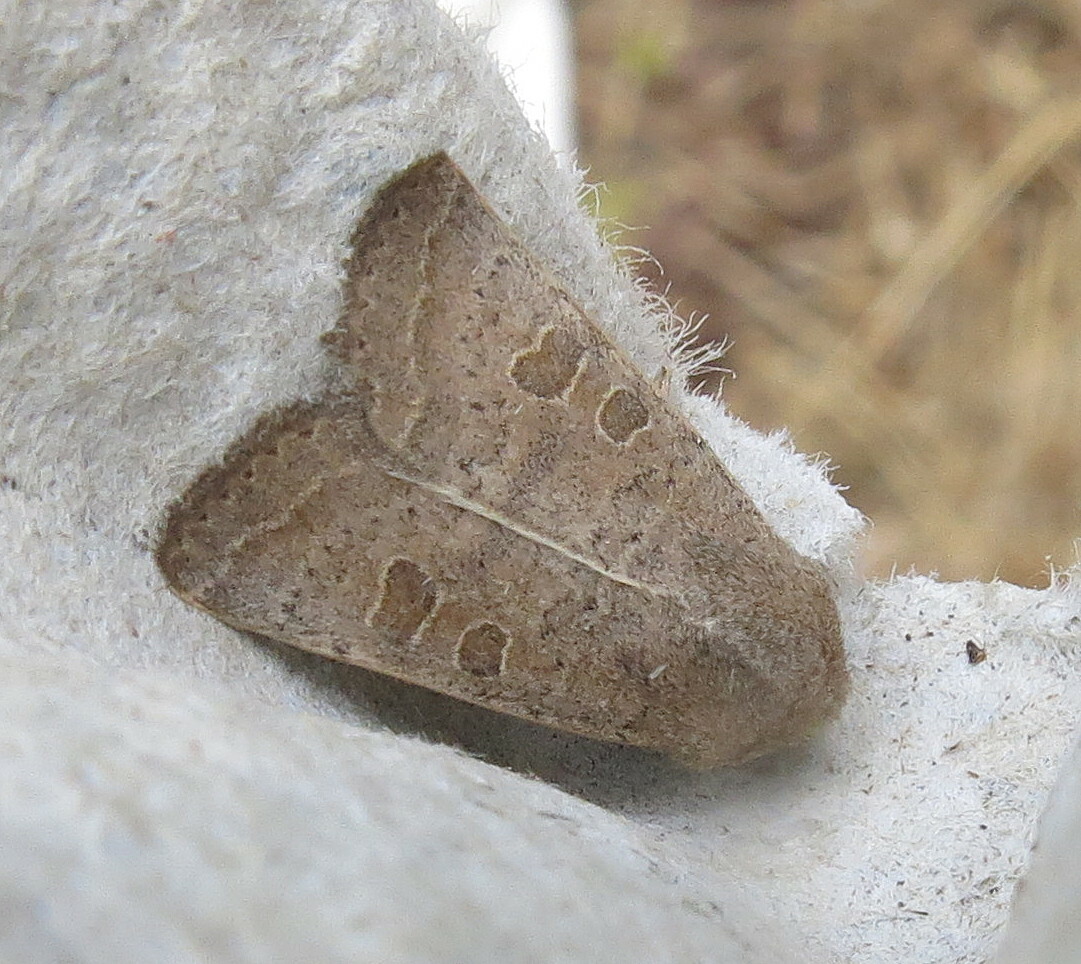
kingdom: Animalia
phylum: Arthropoda
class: Insecta
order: Lepidoptera
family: Noctuidae
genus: Hoplodrina
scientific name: Hoplodrina ambigua
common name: Vine's rustic
